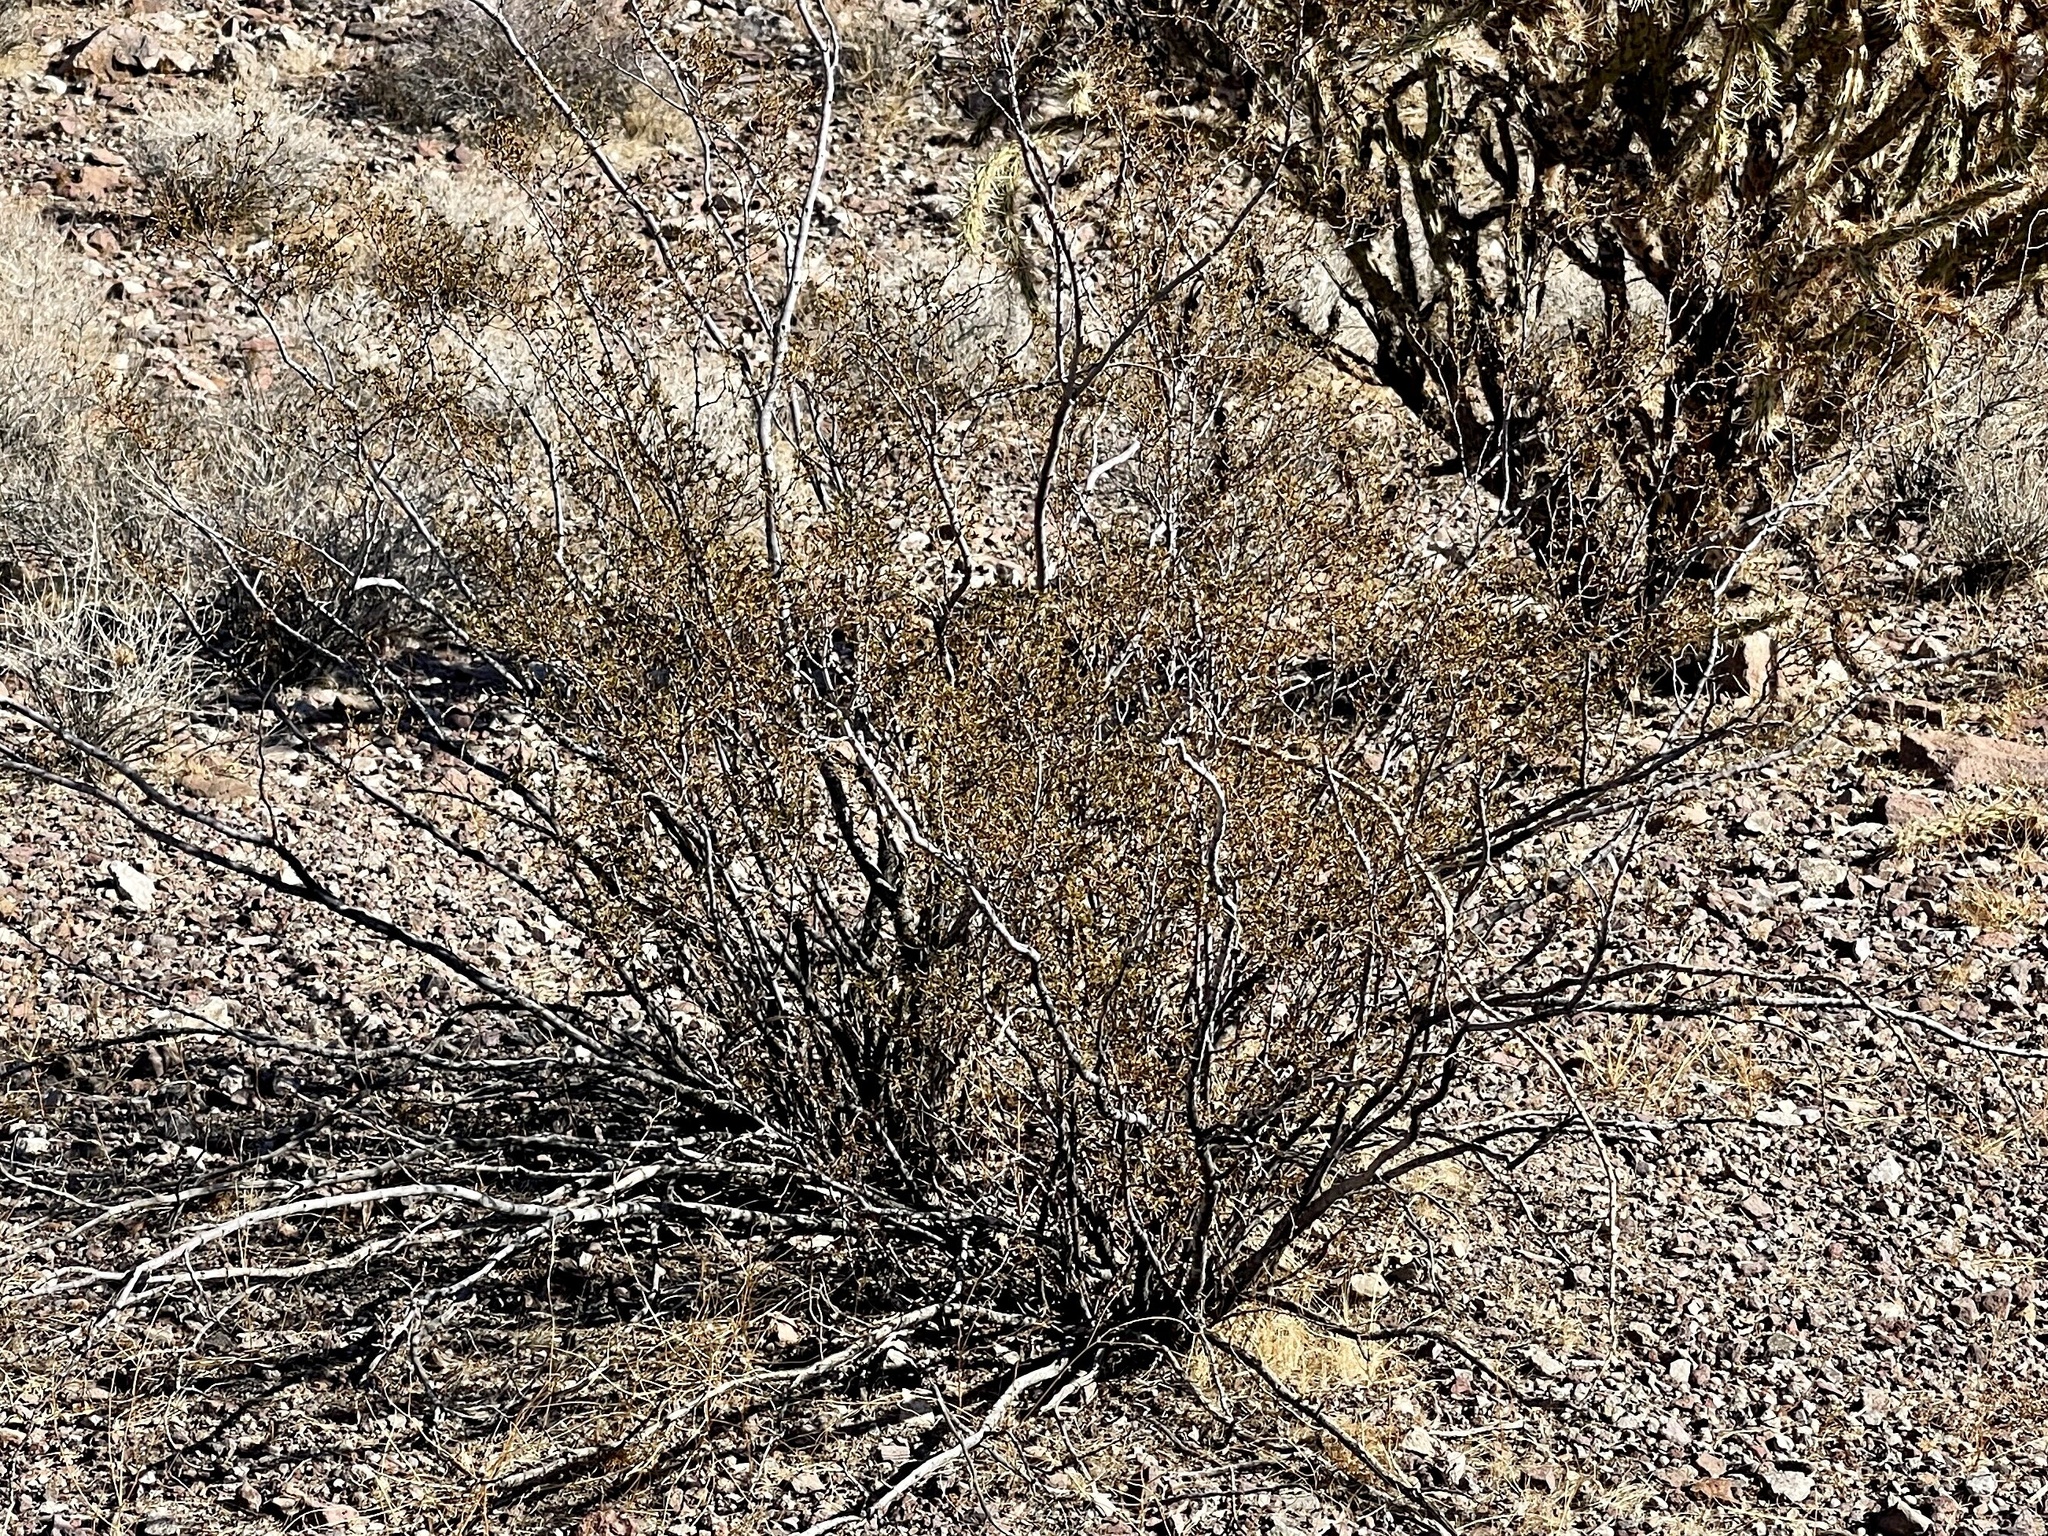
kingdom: Plantae
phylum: Tracheophyta
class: Magnoliopsida
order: Zygophyllales
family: Zygophyllaceae
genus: Larrea
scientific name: Larrea tridentata
